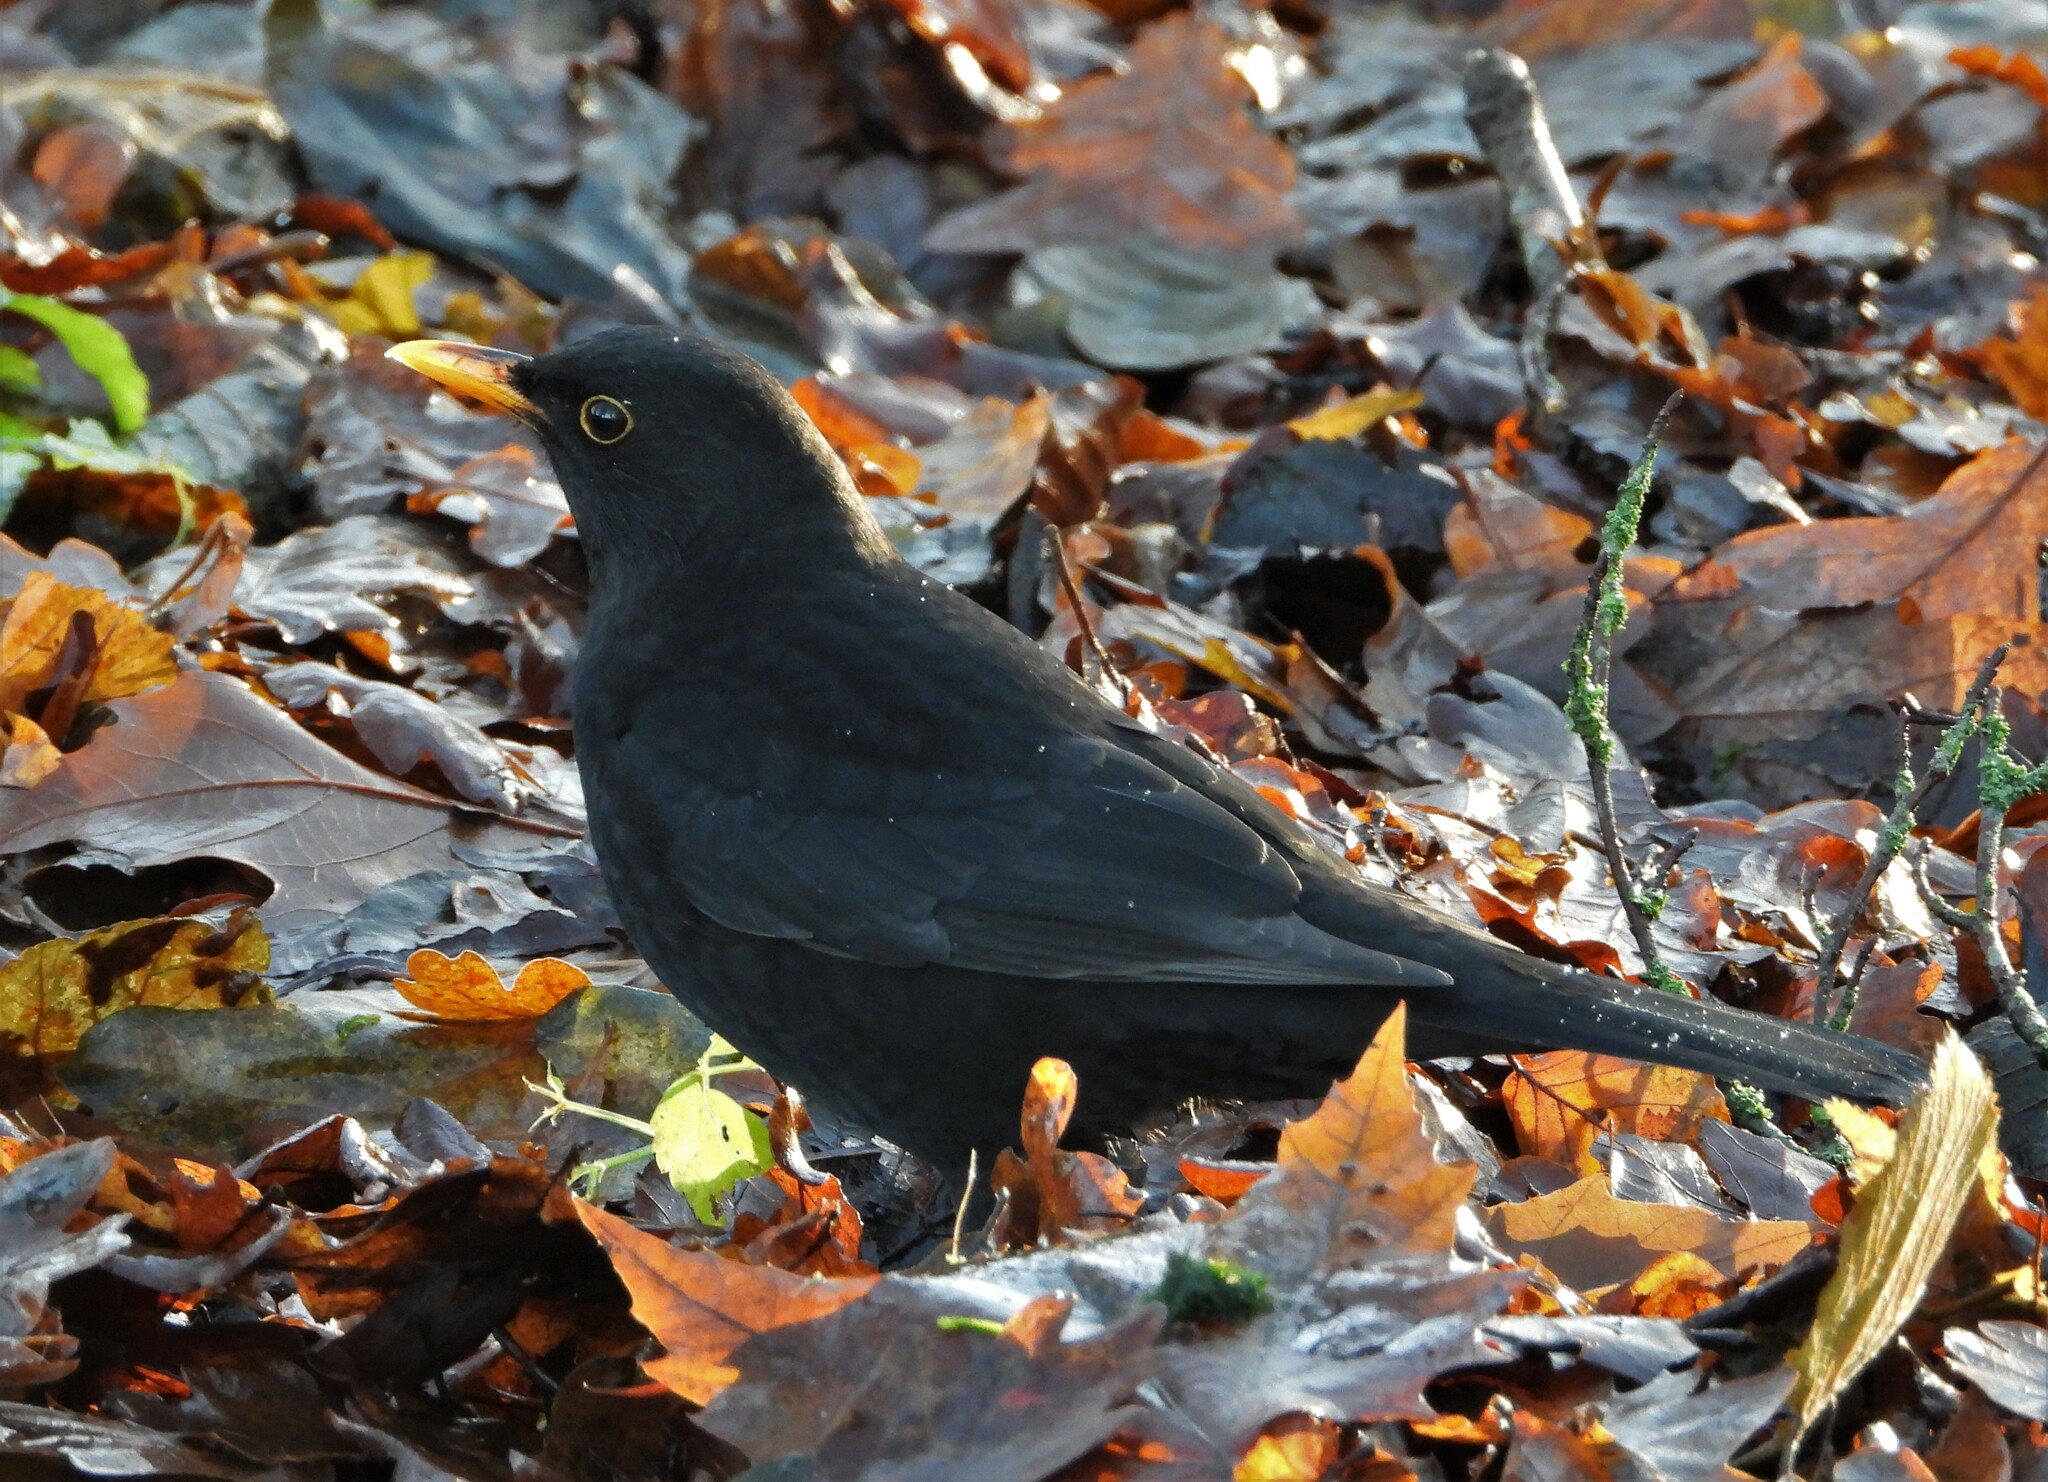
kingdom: Animalia
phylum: Chordata
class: Aves
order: Passeriformes
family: Turdidae
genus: Turdus
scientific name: Turdus merula
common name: Common blackbird
